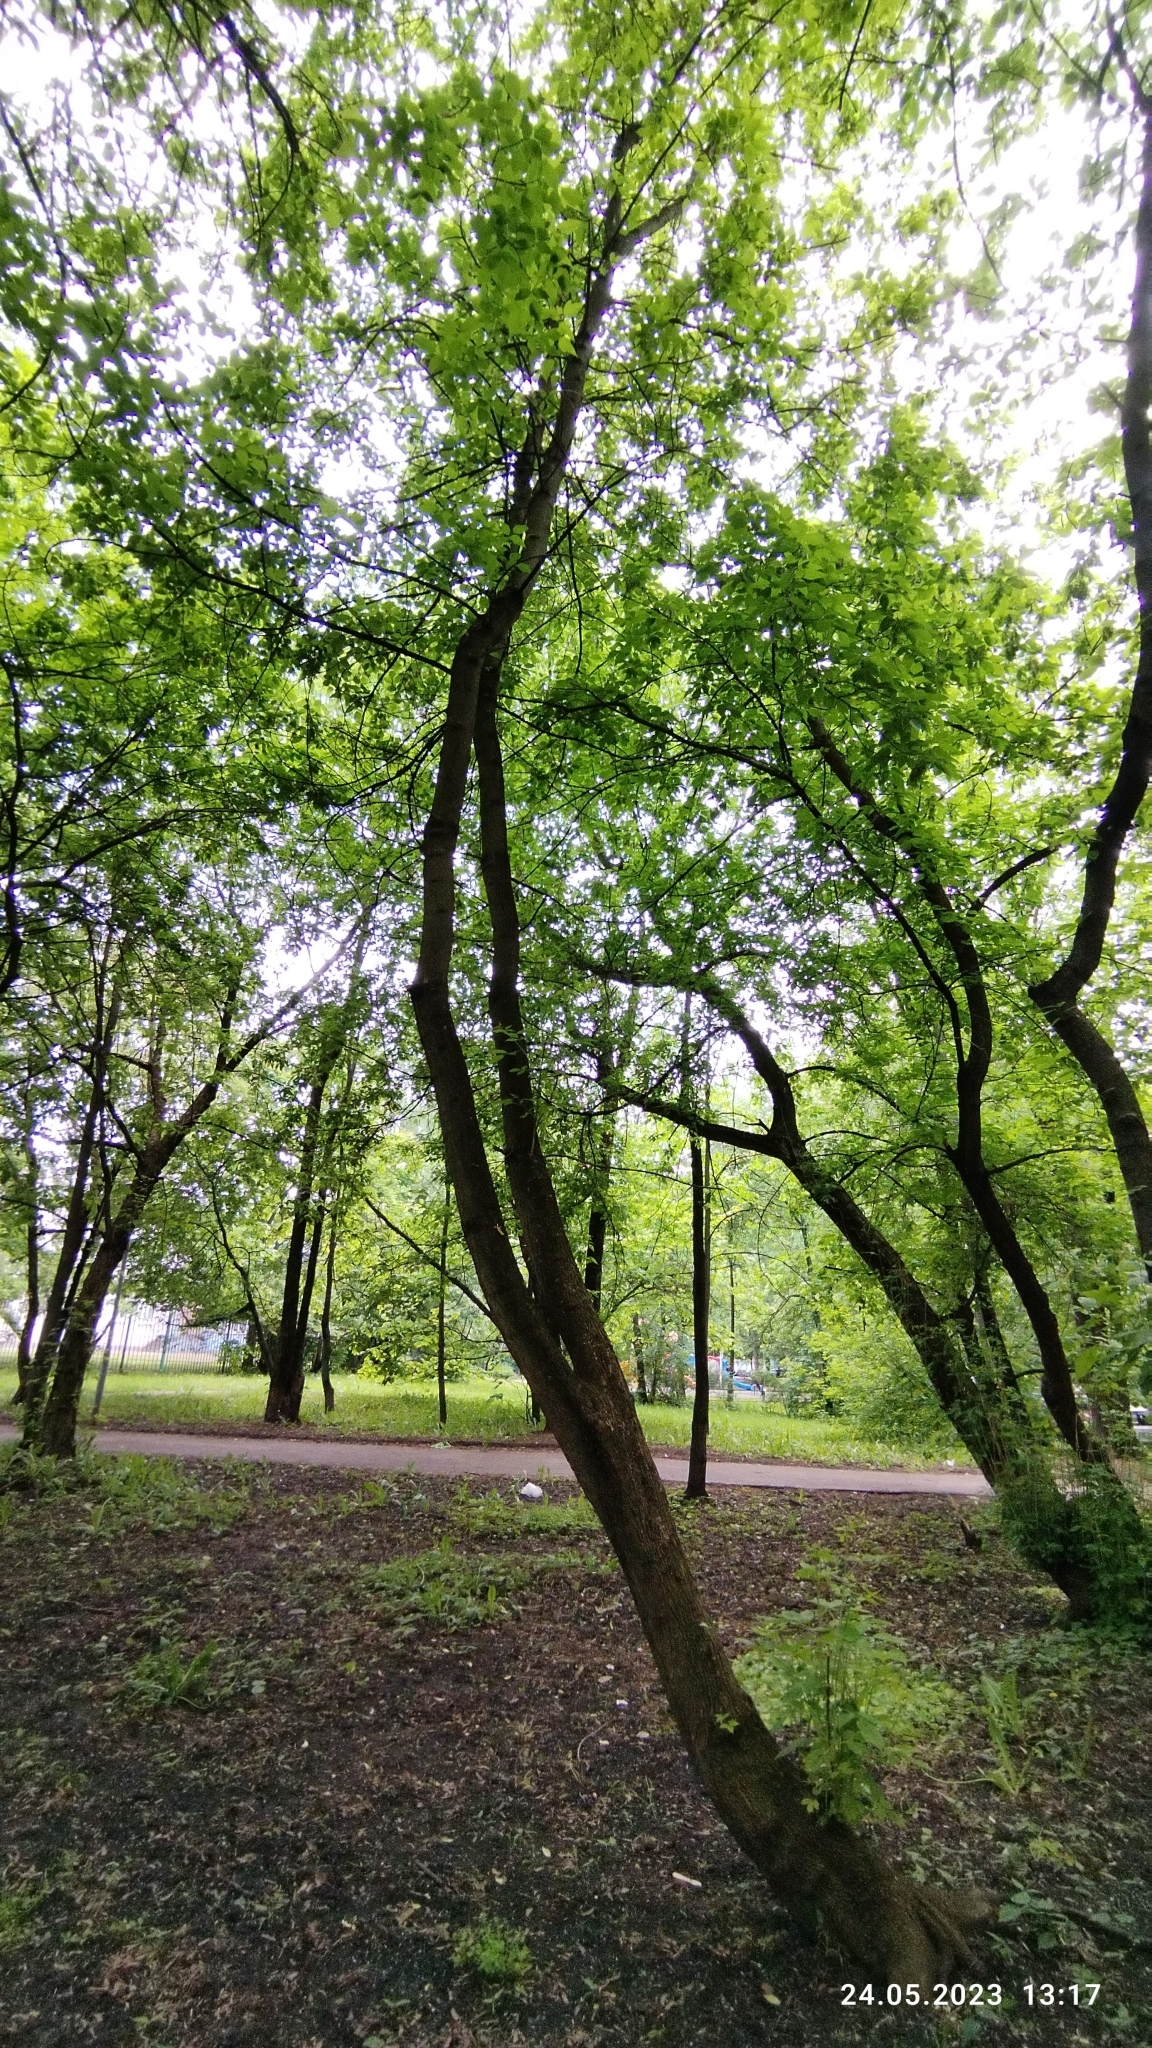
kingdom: Plantae
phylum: Tracheophyta
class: Magnoliopsida
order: Sapindales
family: Sapindaceae
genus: Acer
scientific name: Acer negundo
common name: Ashleaf maple
